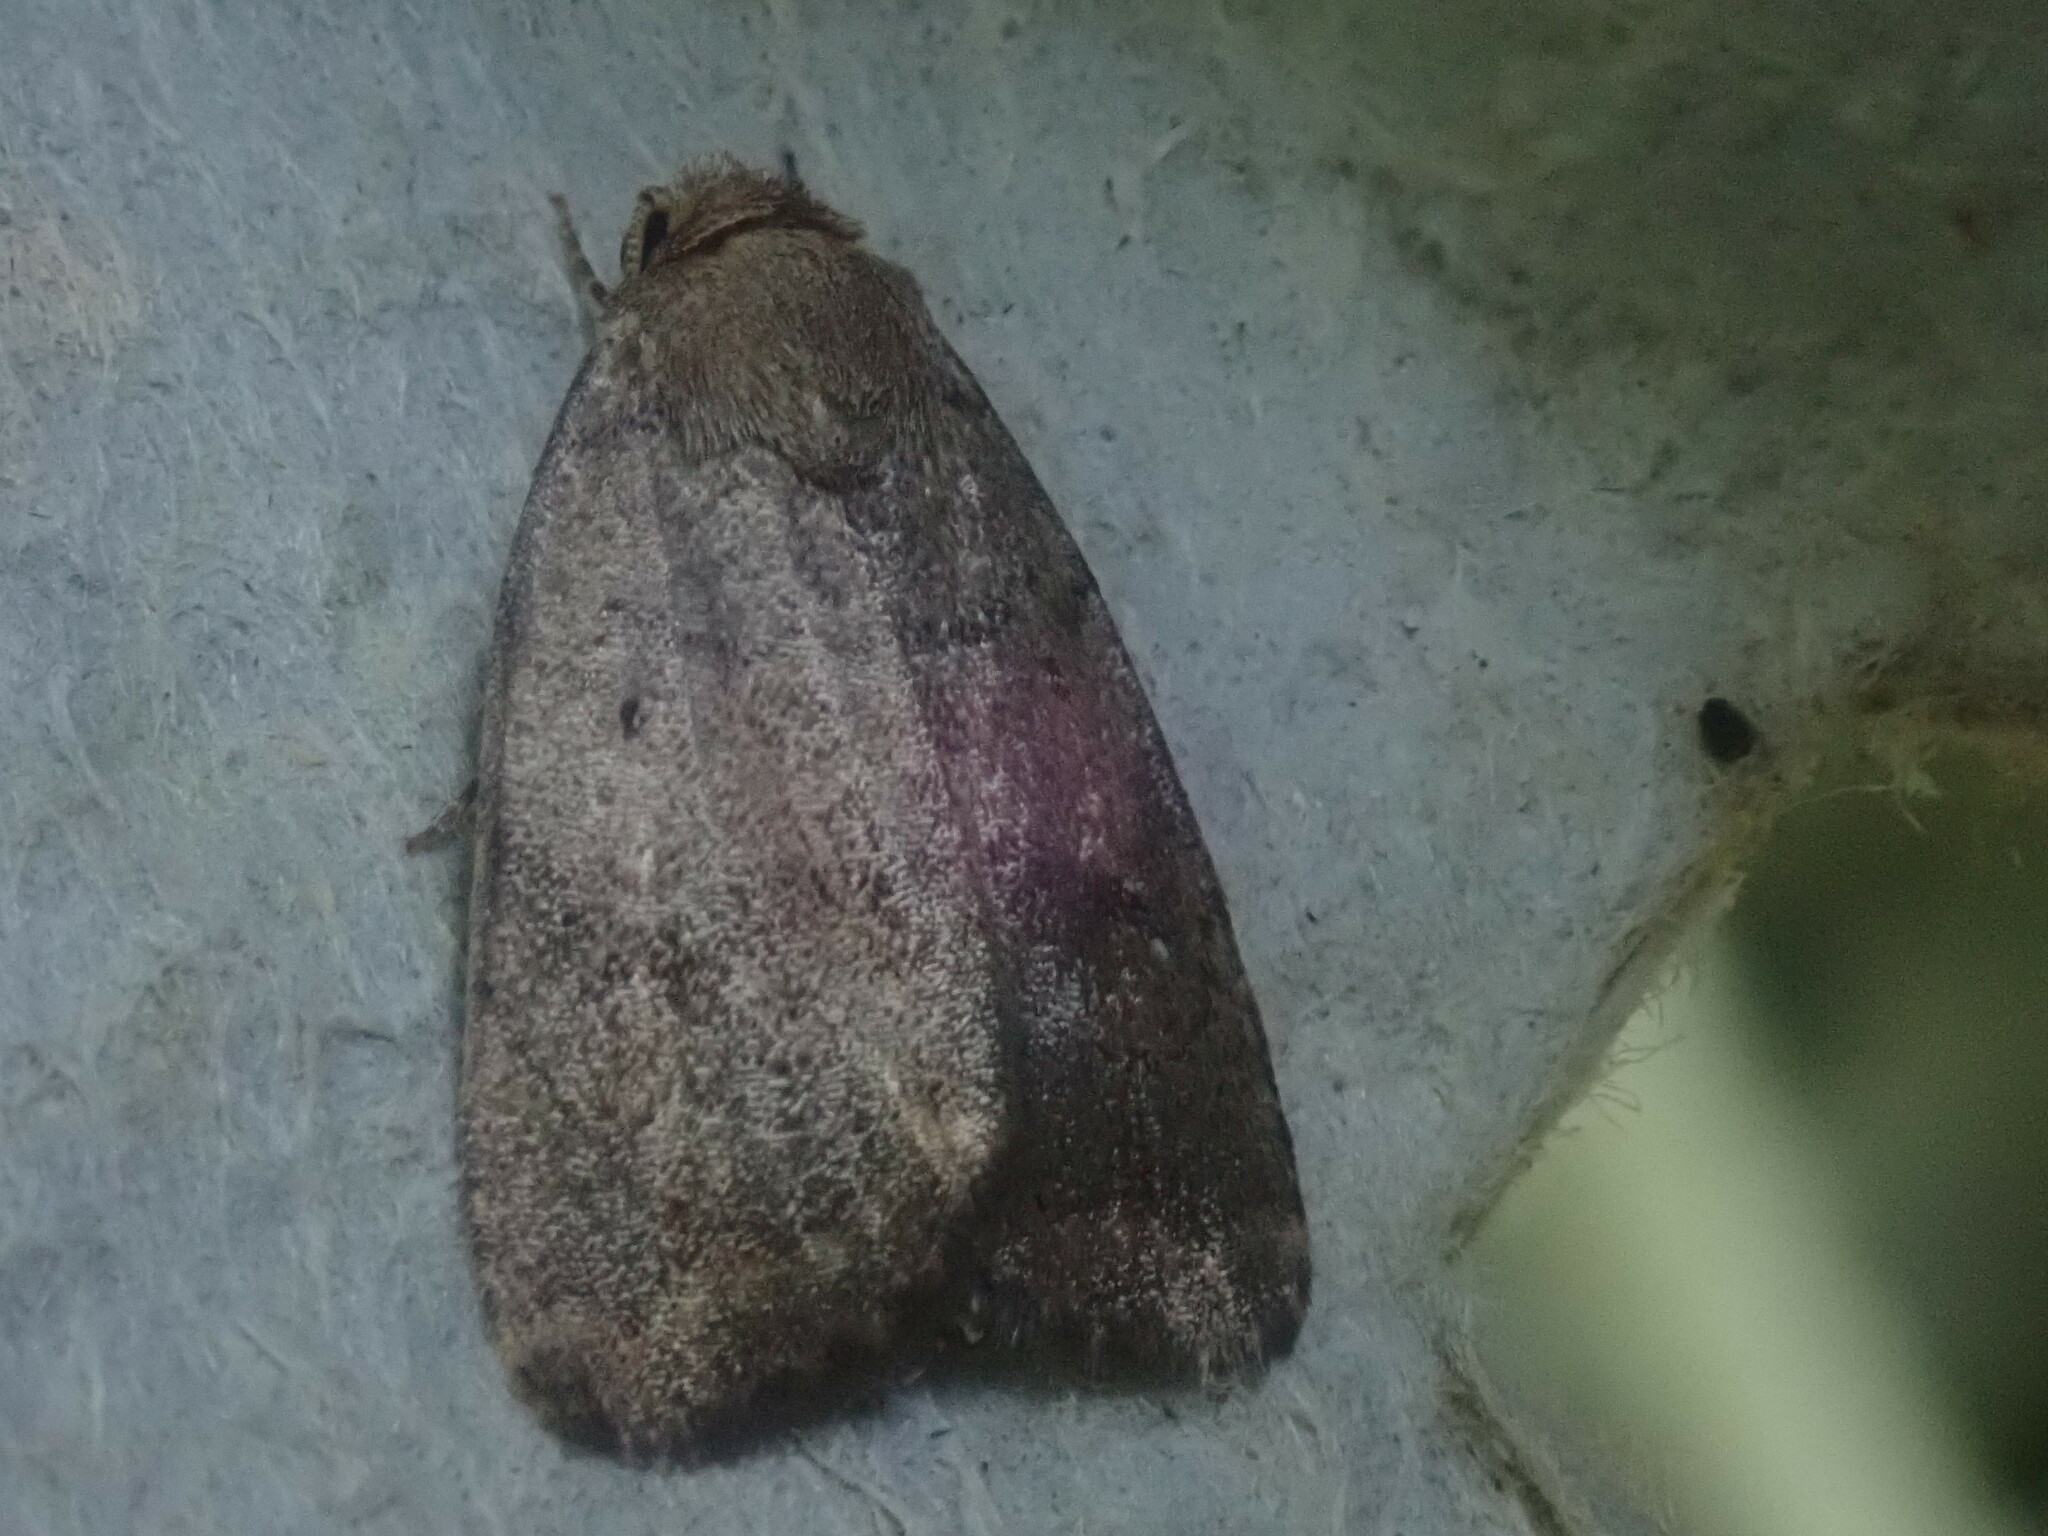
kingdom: Animalia
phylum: Arthropoda
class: Insecta
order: Lepidoptera
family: Noctuidae
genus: Athetis
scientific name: Athetis tarda
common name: Slowpoke moth
